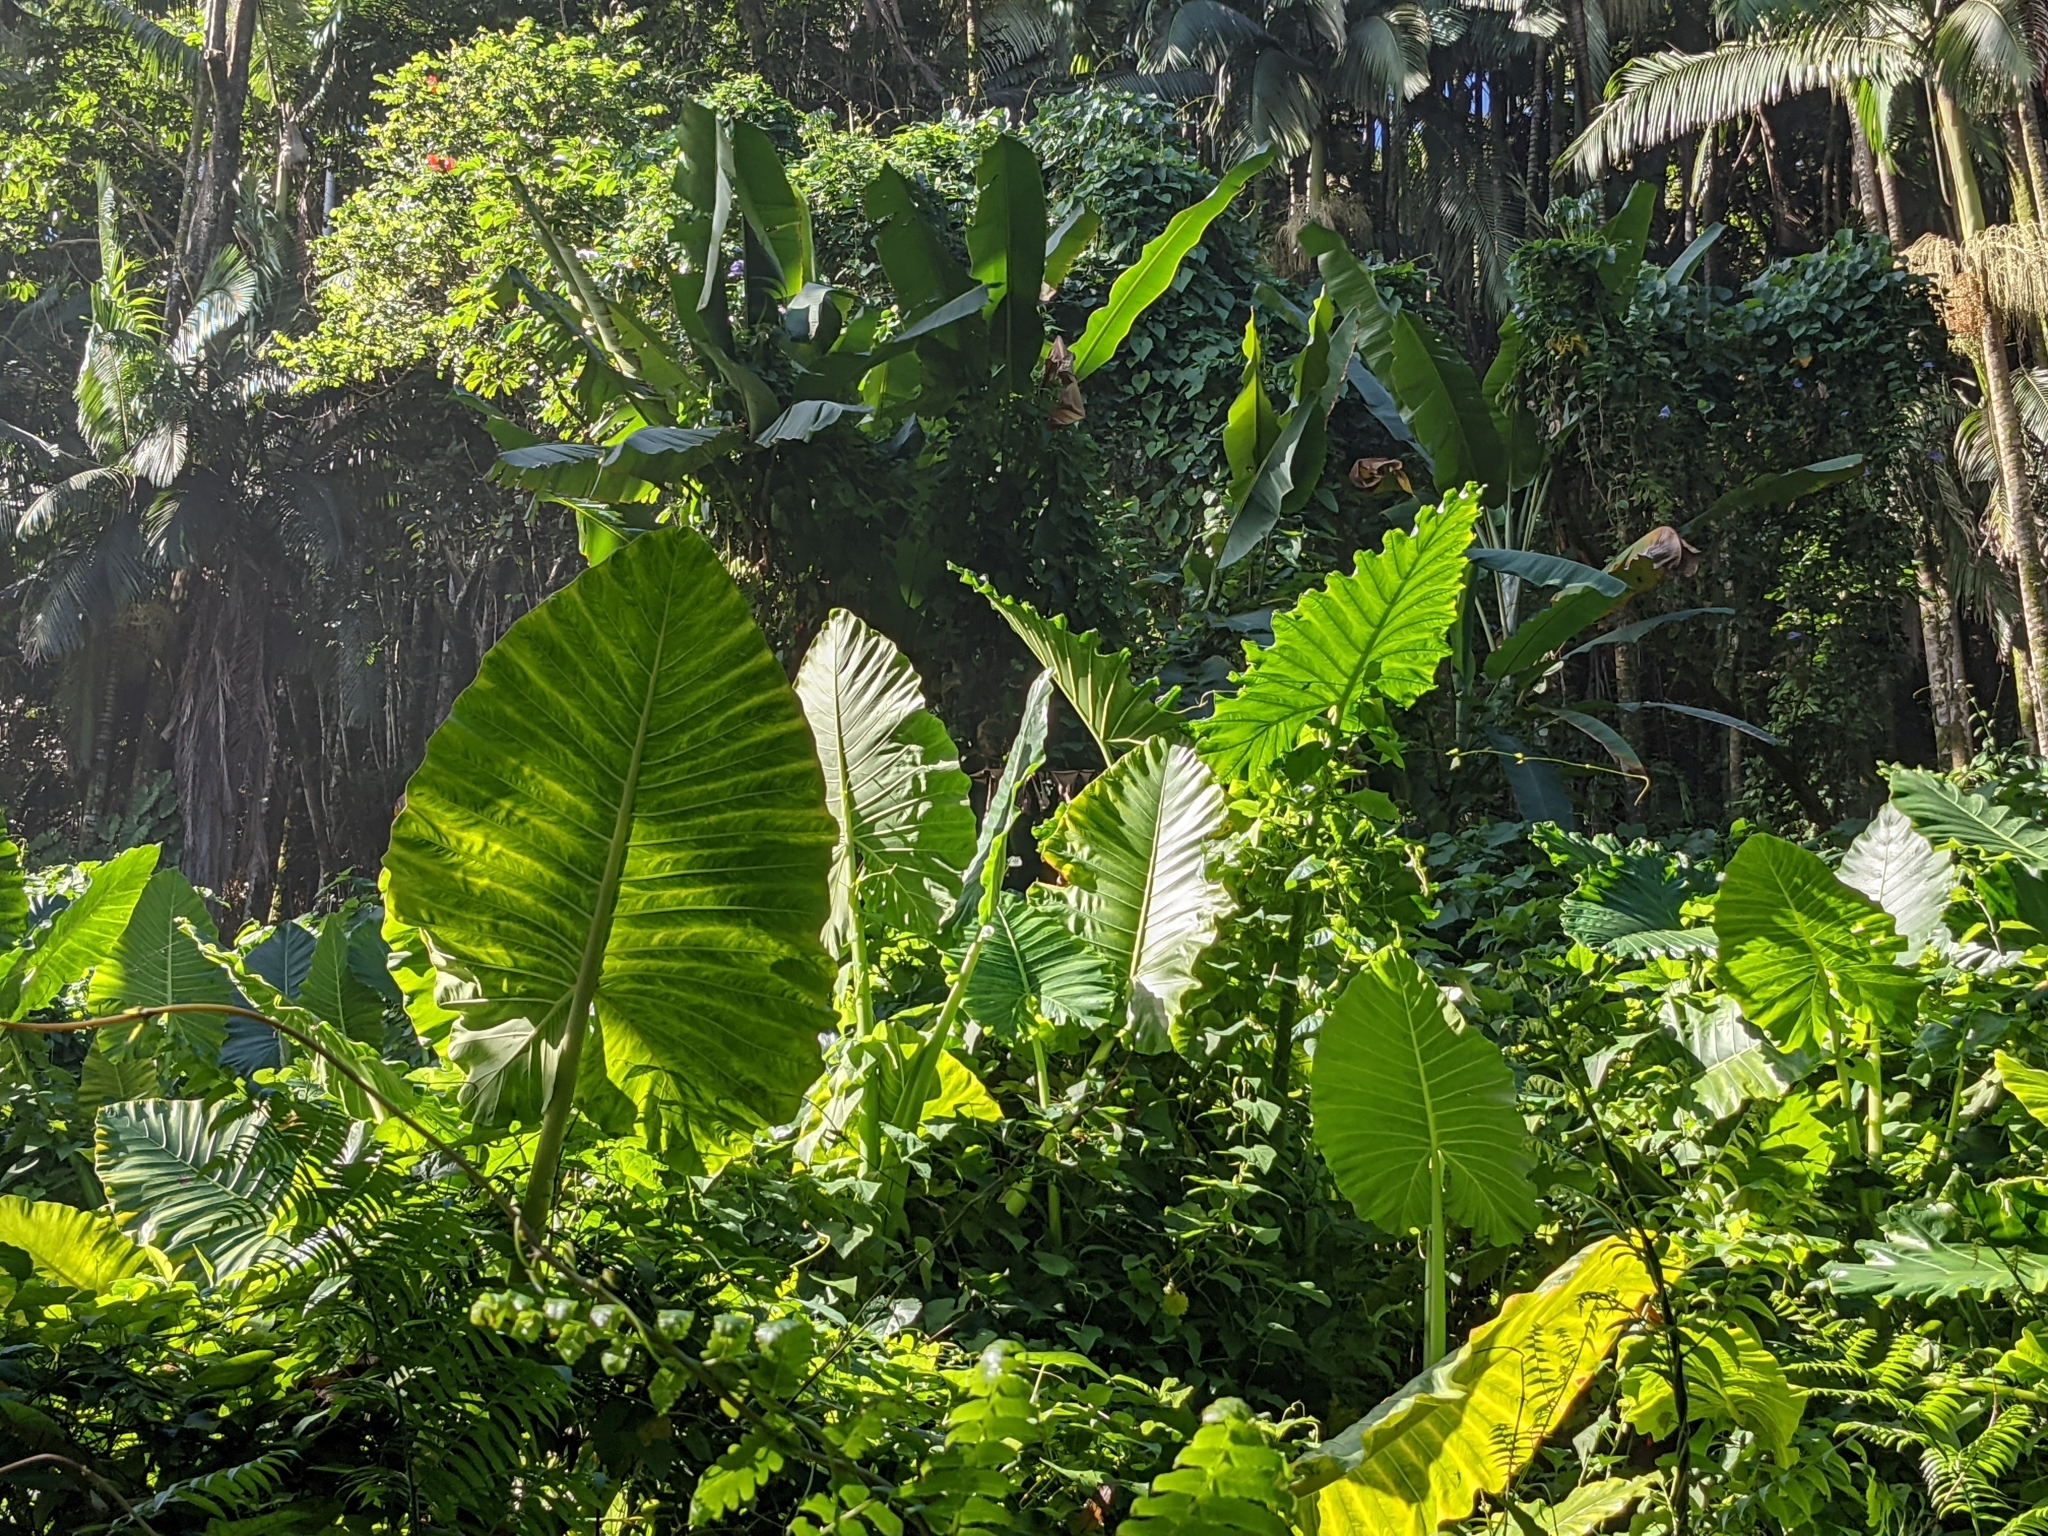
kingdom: Plantae
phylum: Tracheophyta
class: Liliopsida
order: Alismatales
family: Araceae
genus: Alocasia
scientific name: Alocasia macrorrhizos
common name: Giant taro
